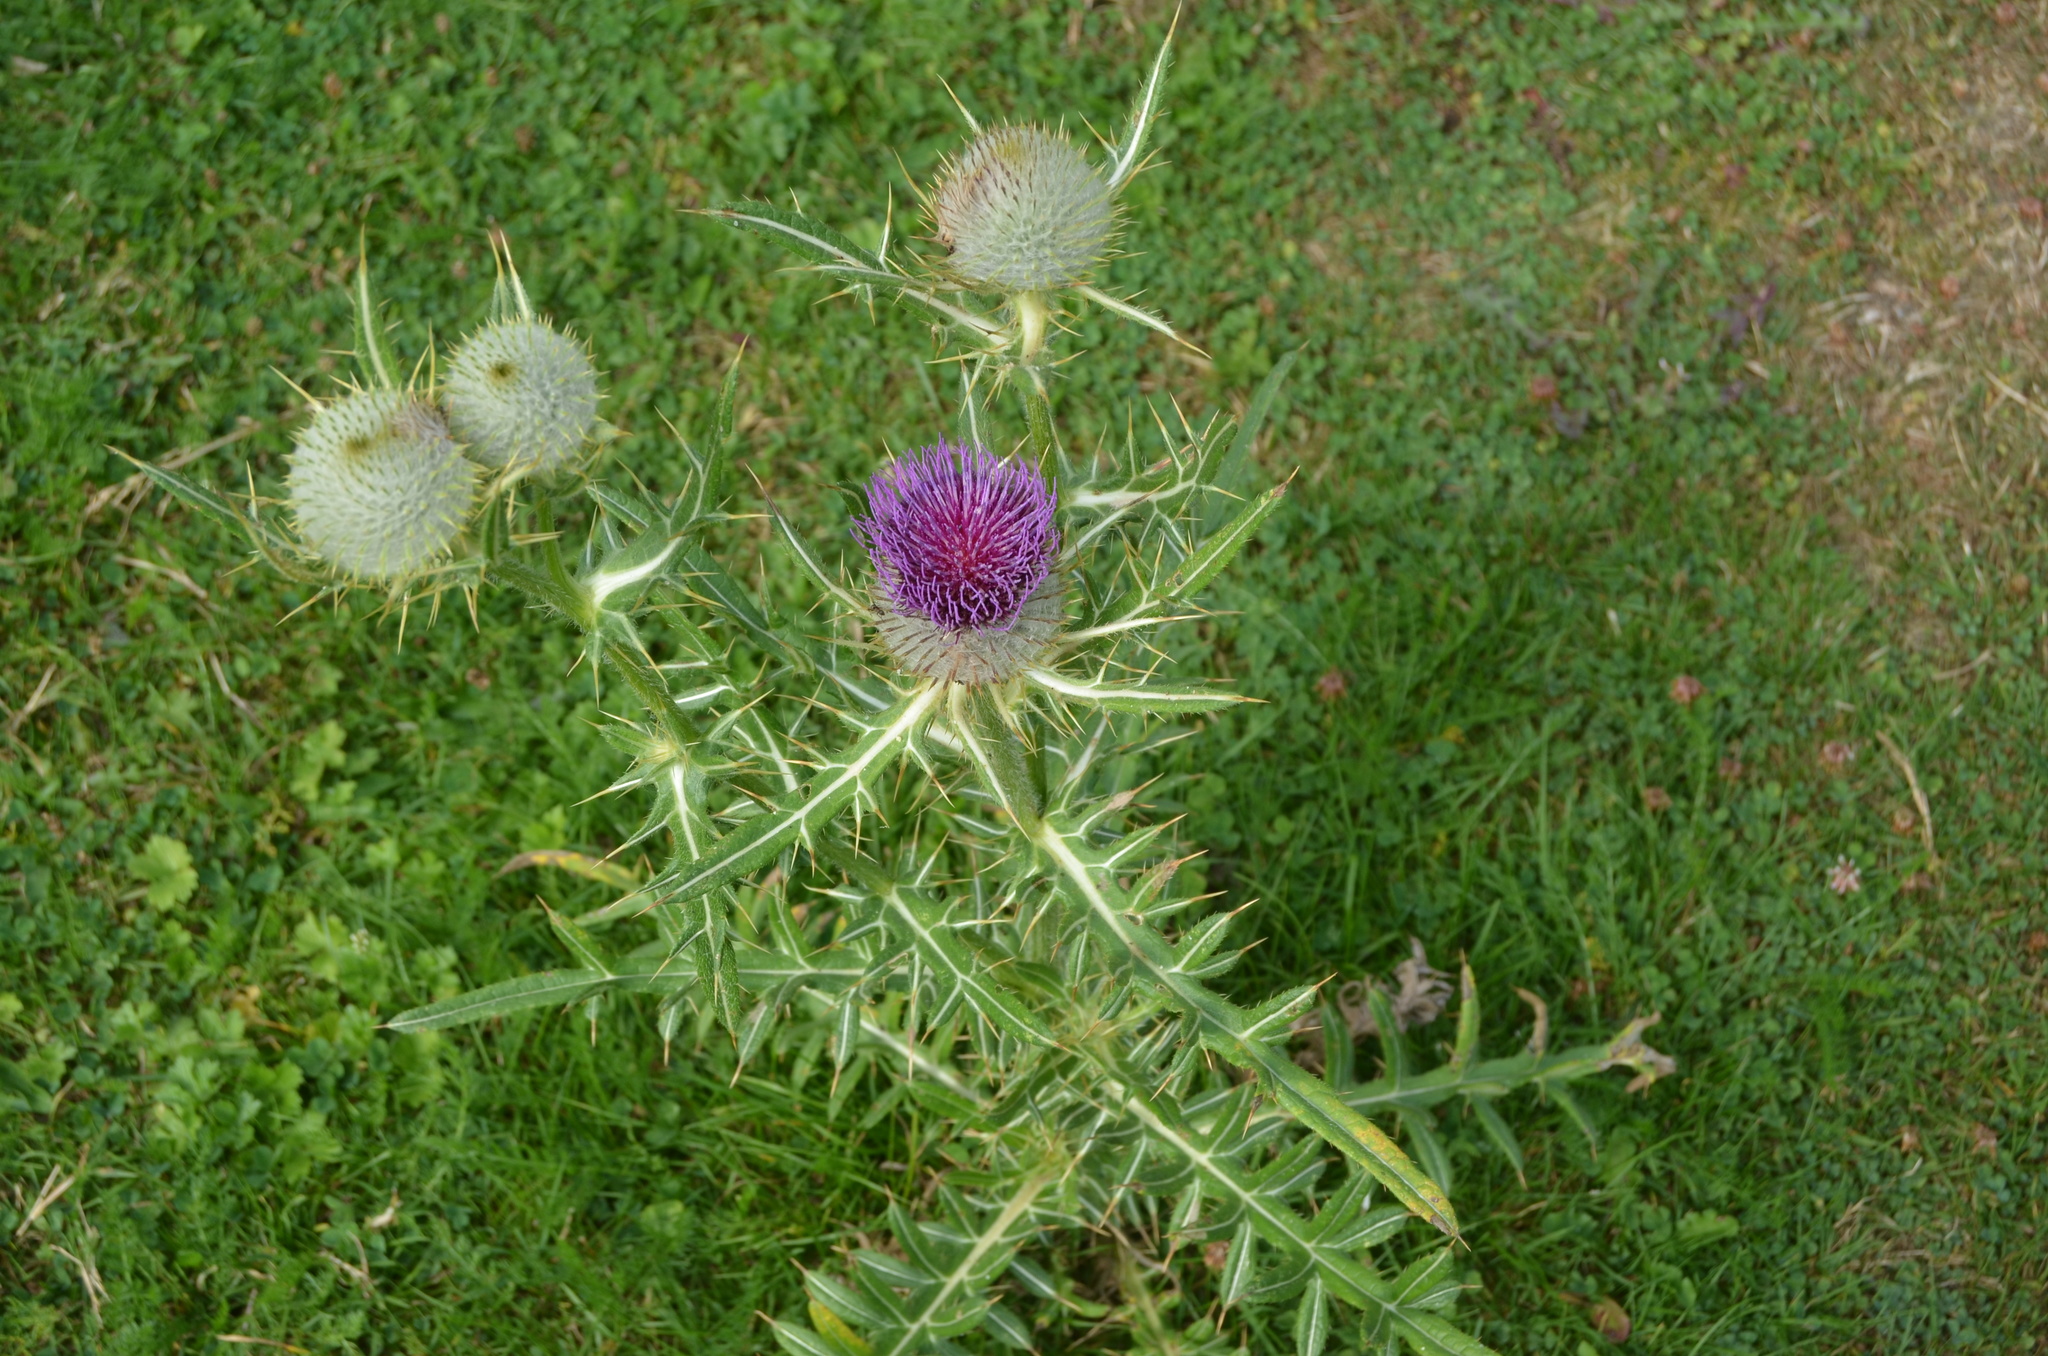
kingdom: Plantae
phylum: Tracheophyta
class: Magnoliopsida
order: Asterales
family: Asteraceae
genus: Lophiolepis
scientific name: Lophiolepis eriophora
